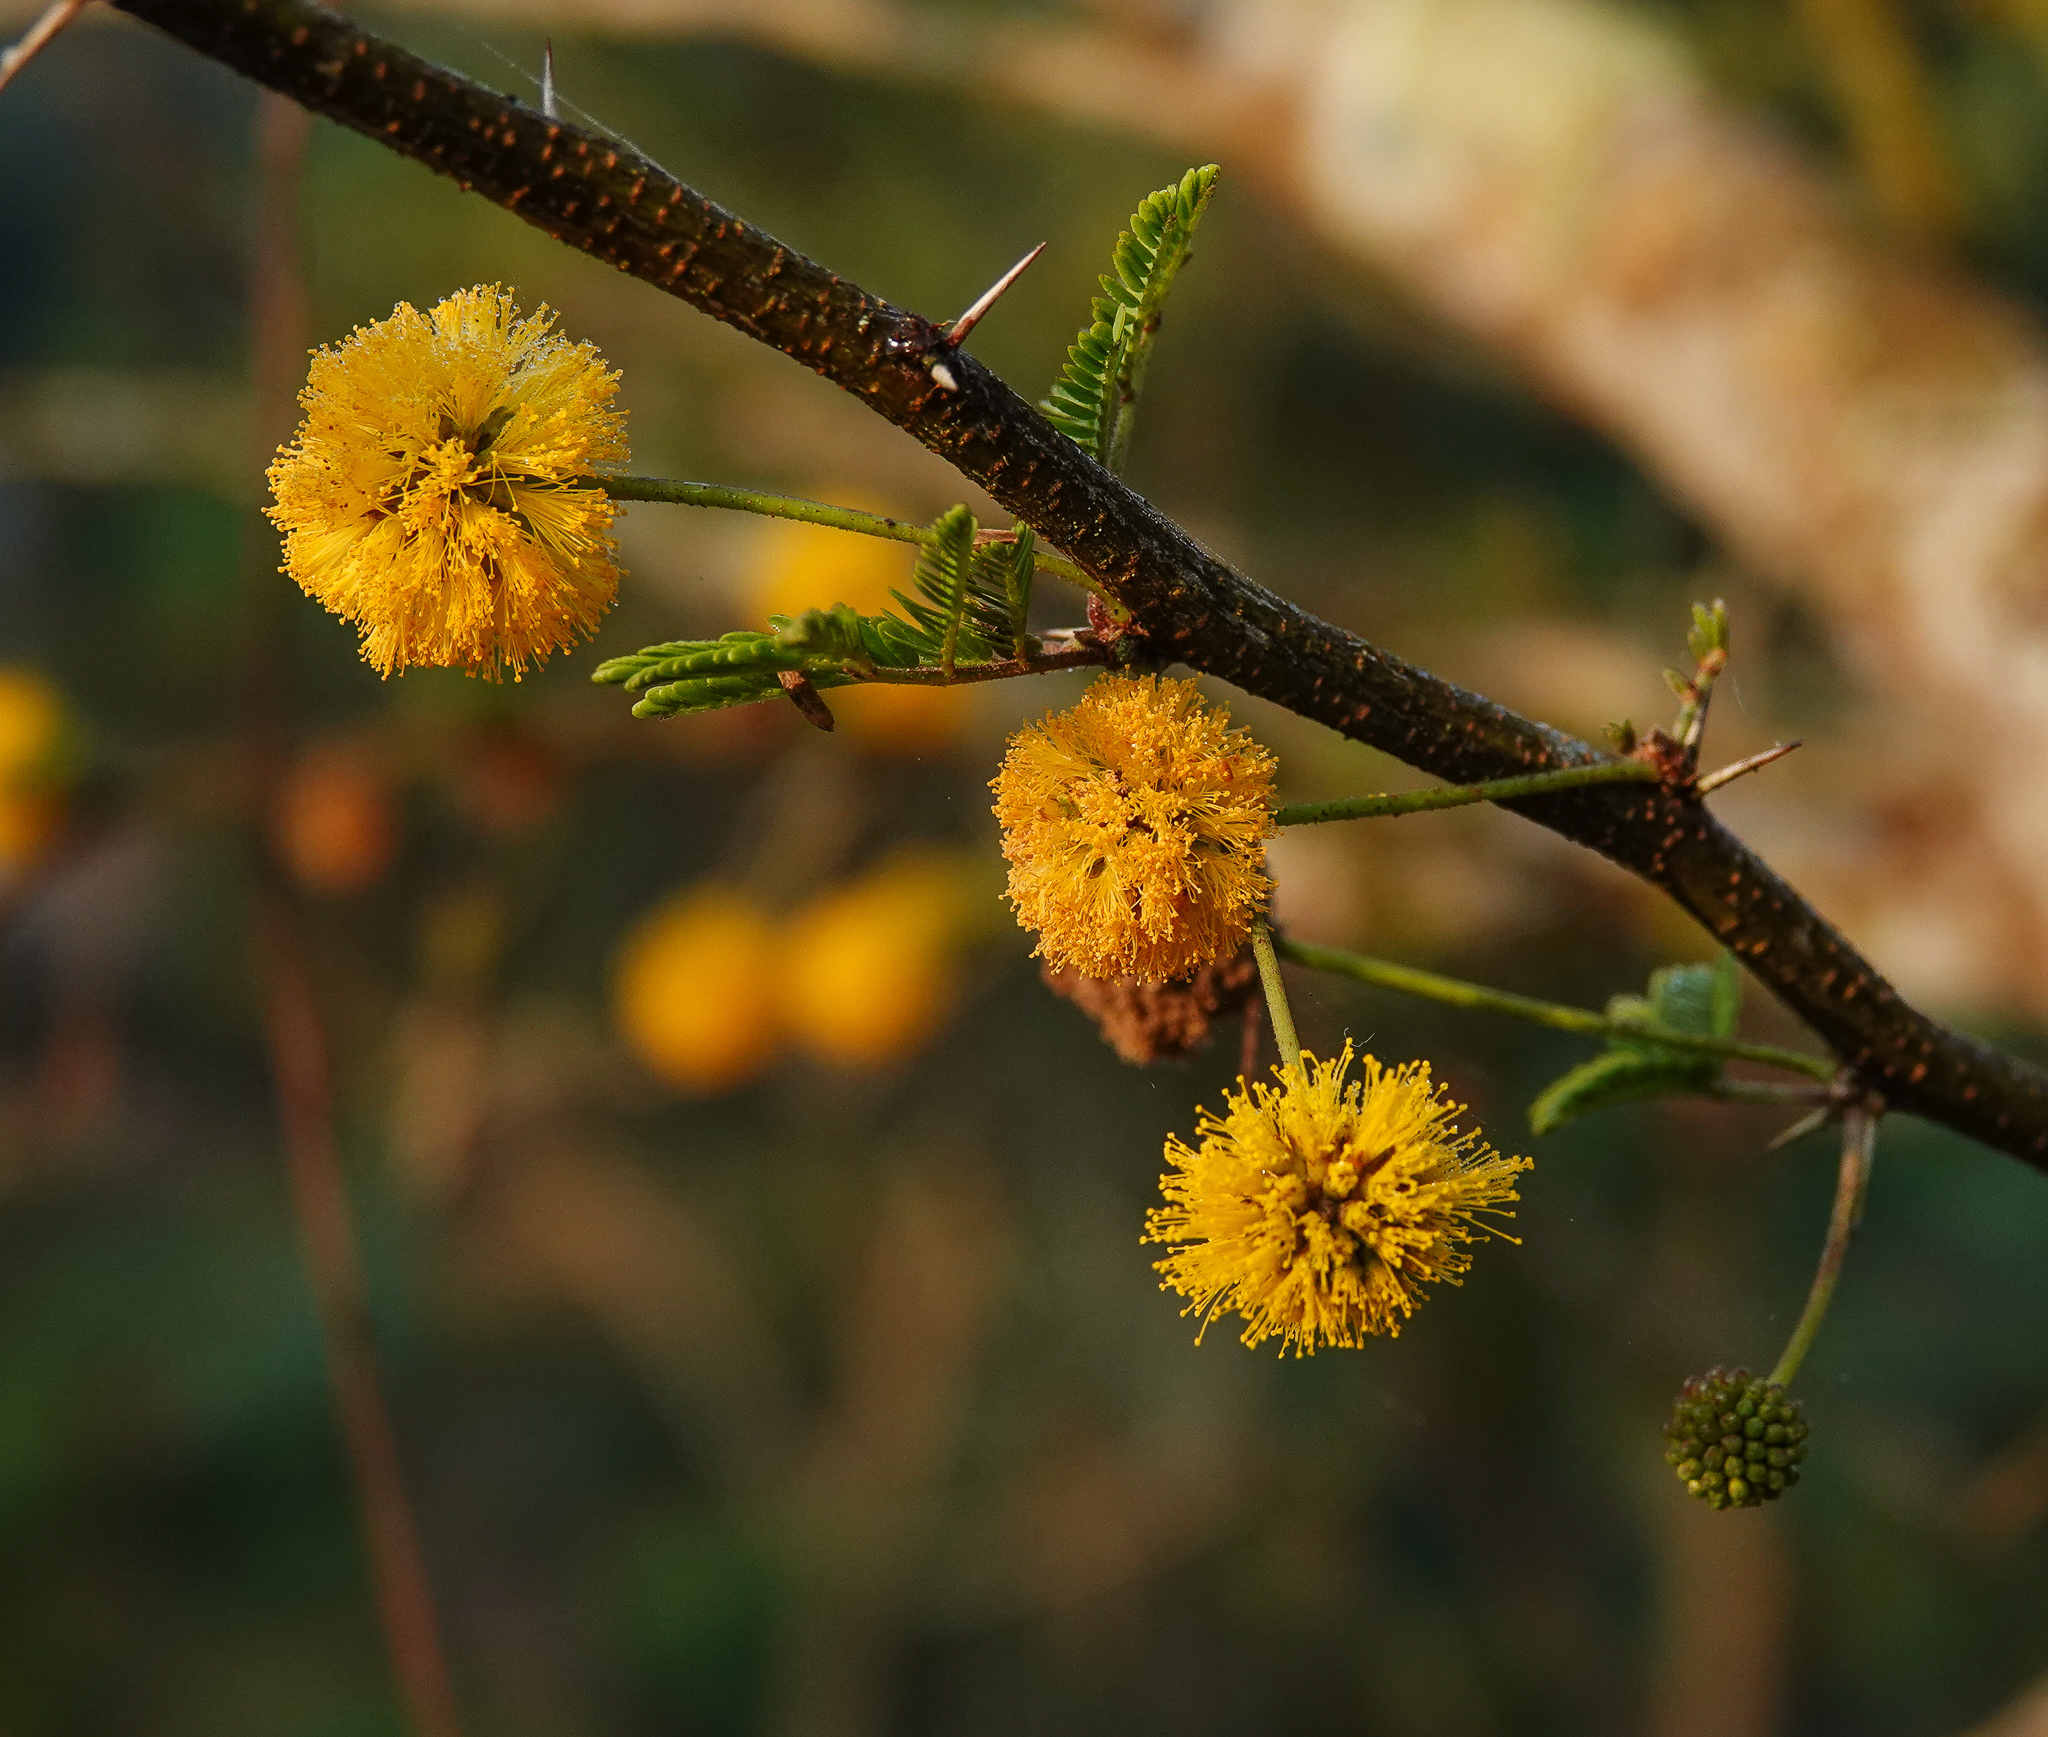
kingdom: Plantae
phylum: Tracheophyta
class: Magnoliopsida
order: Fabales
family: Fabaceae
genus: Vachellia
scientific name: Vachellia farnesiana
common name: Sweet acacia
